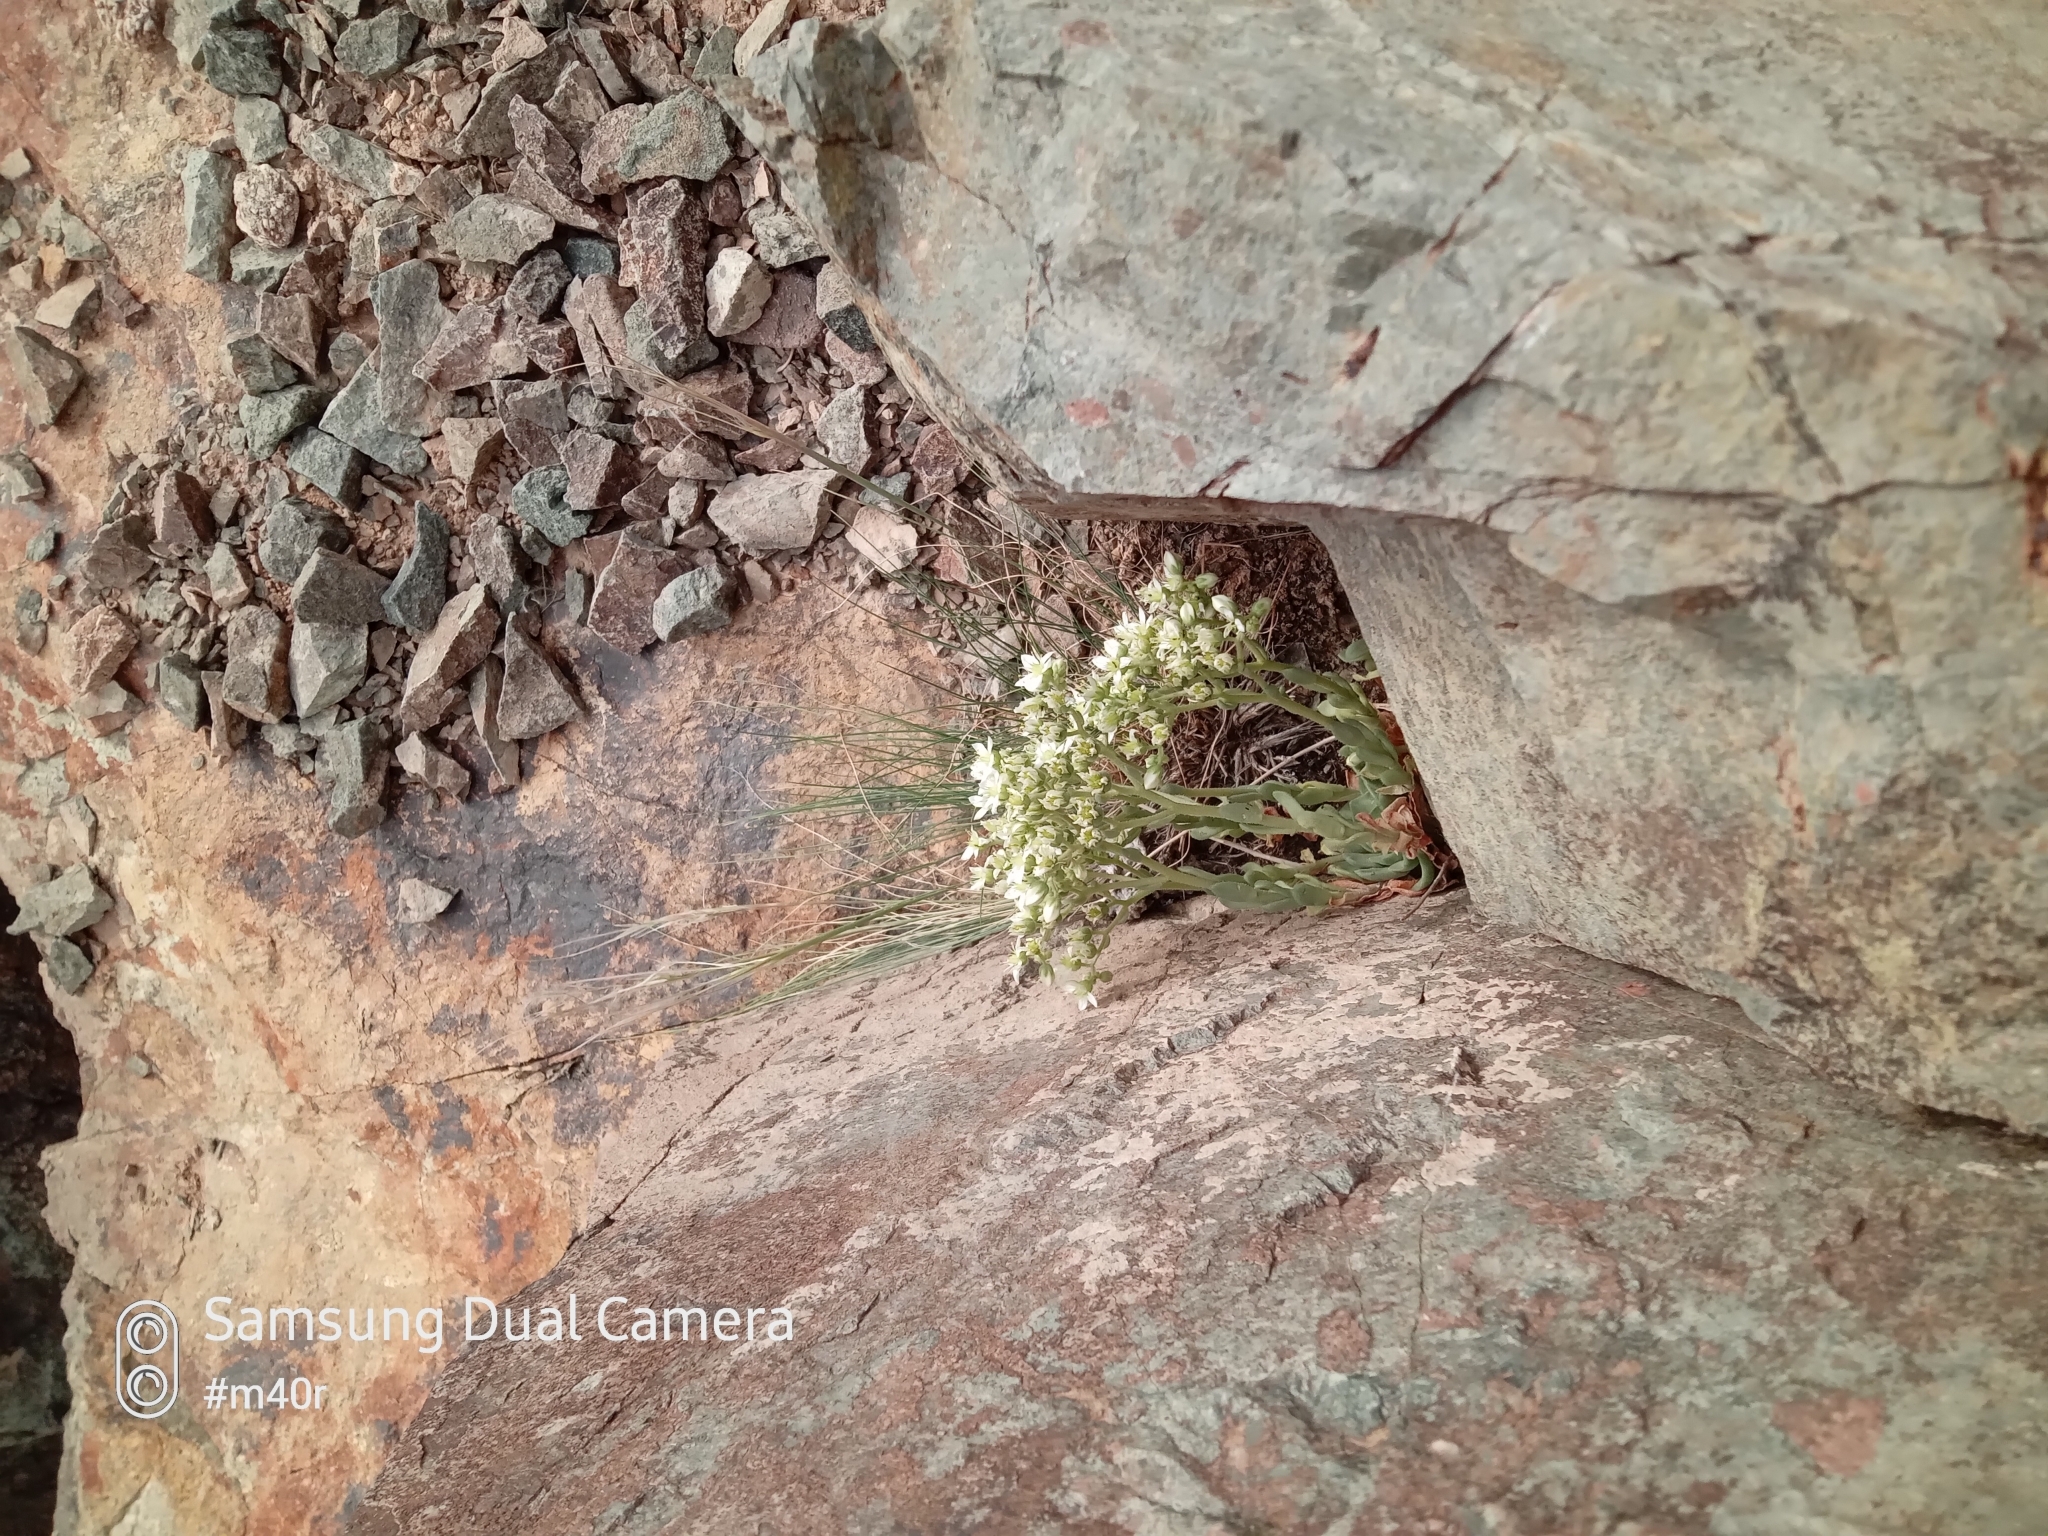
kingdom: Plantae
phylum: Tracheophyta
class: Magnoliopsida
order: Saxifragales
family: Crassulaceae
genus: Rosularia
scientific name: Rosularia platyphylla
